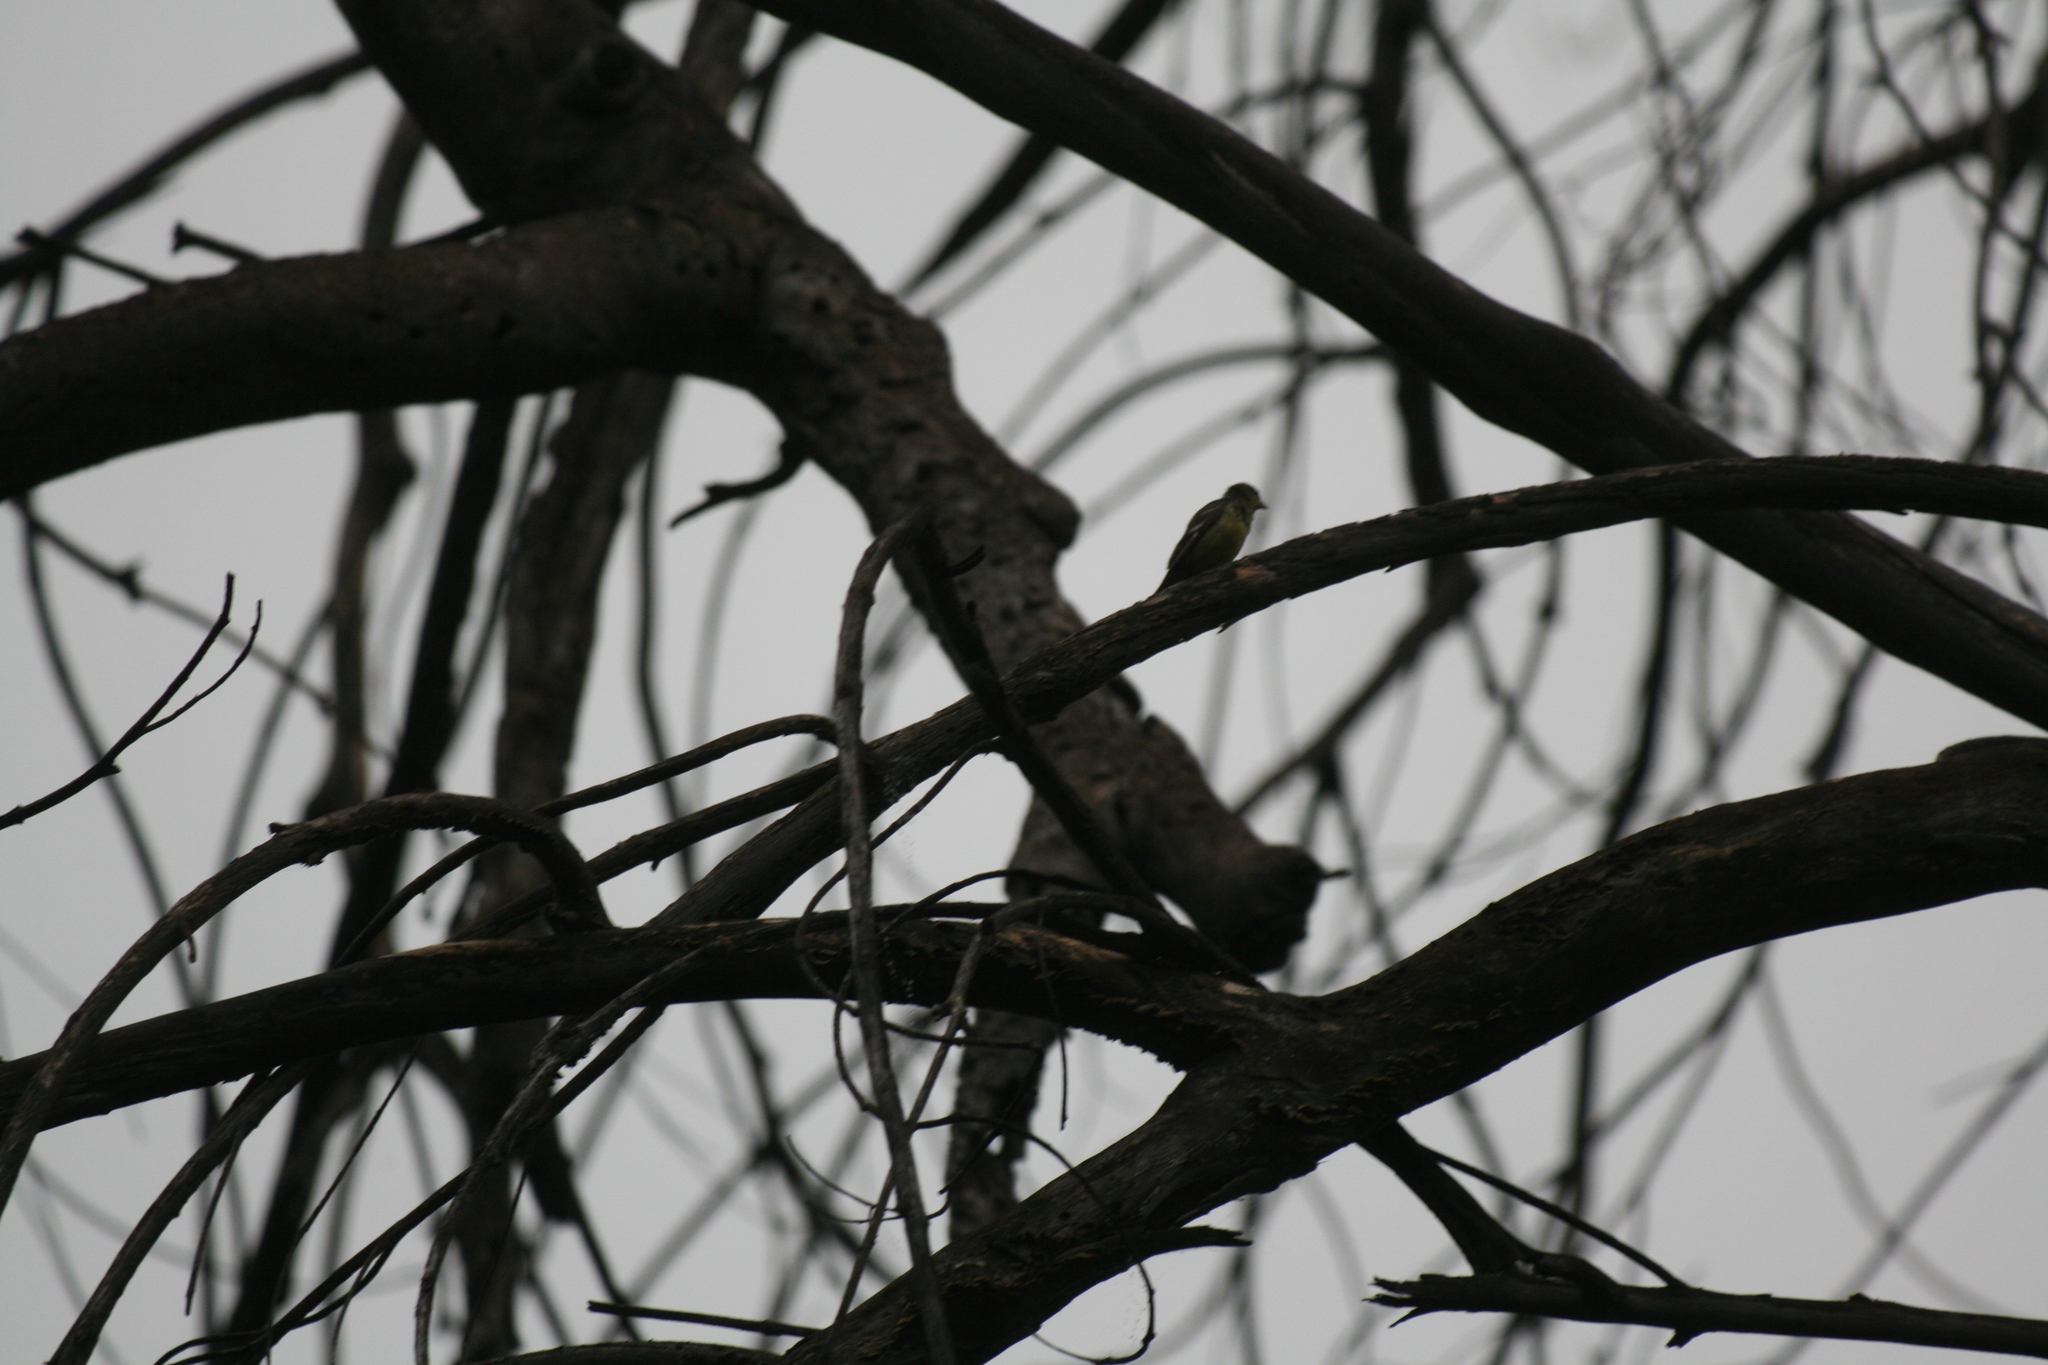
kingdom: Animalia
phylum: Chordata
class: Aves
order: Passeriformes
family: Fringillidae
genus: Spinus
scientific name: Spinus psaltria
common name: Lesser goldfinch
